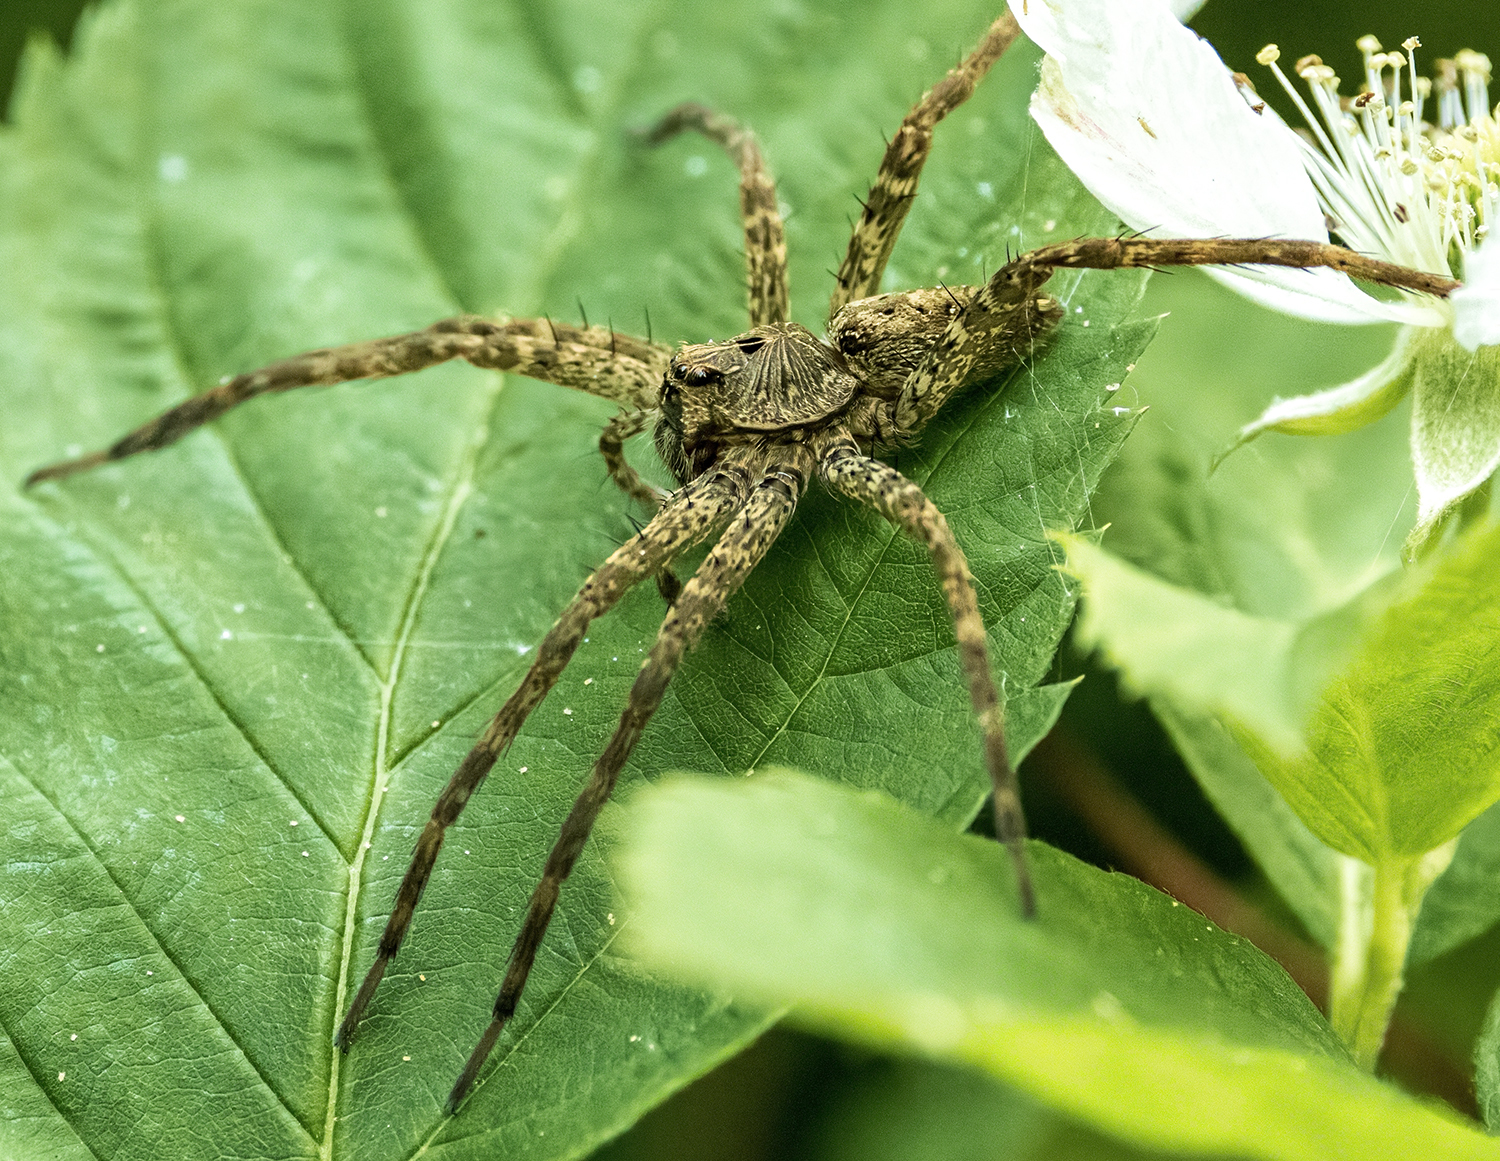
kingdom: Animalia
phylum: Arthropoda
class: Arachnida
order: Araneae
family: Pisauridae
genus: Dolomedes
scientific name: Dolomedes vittatus
